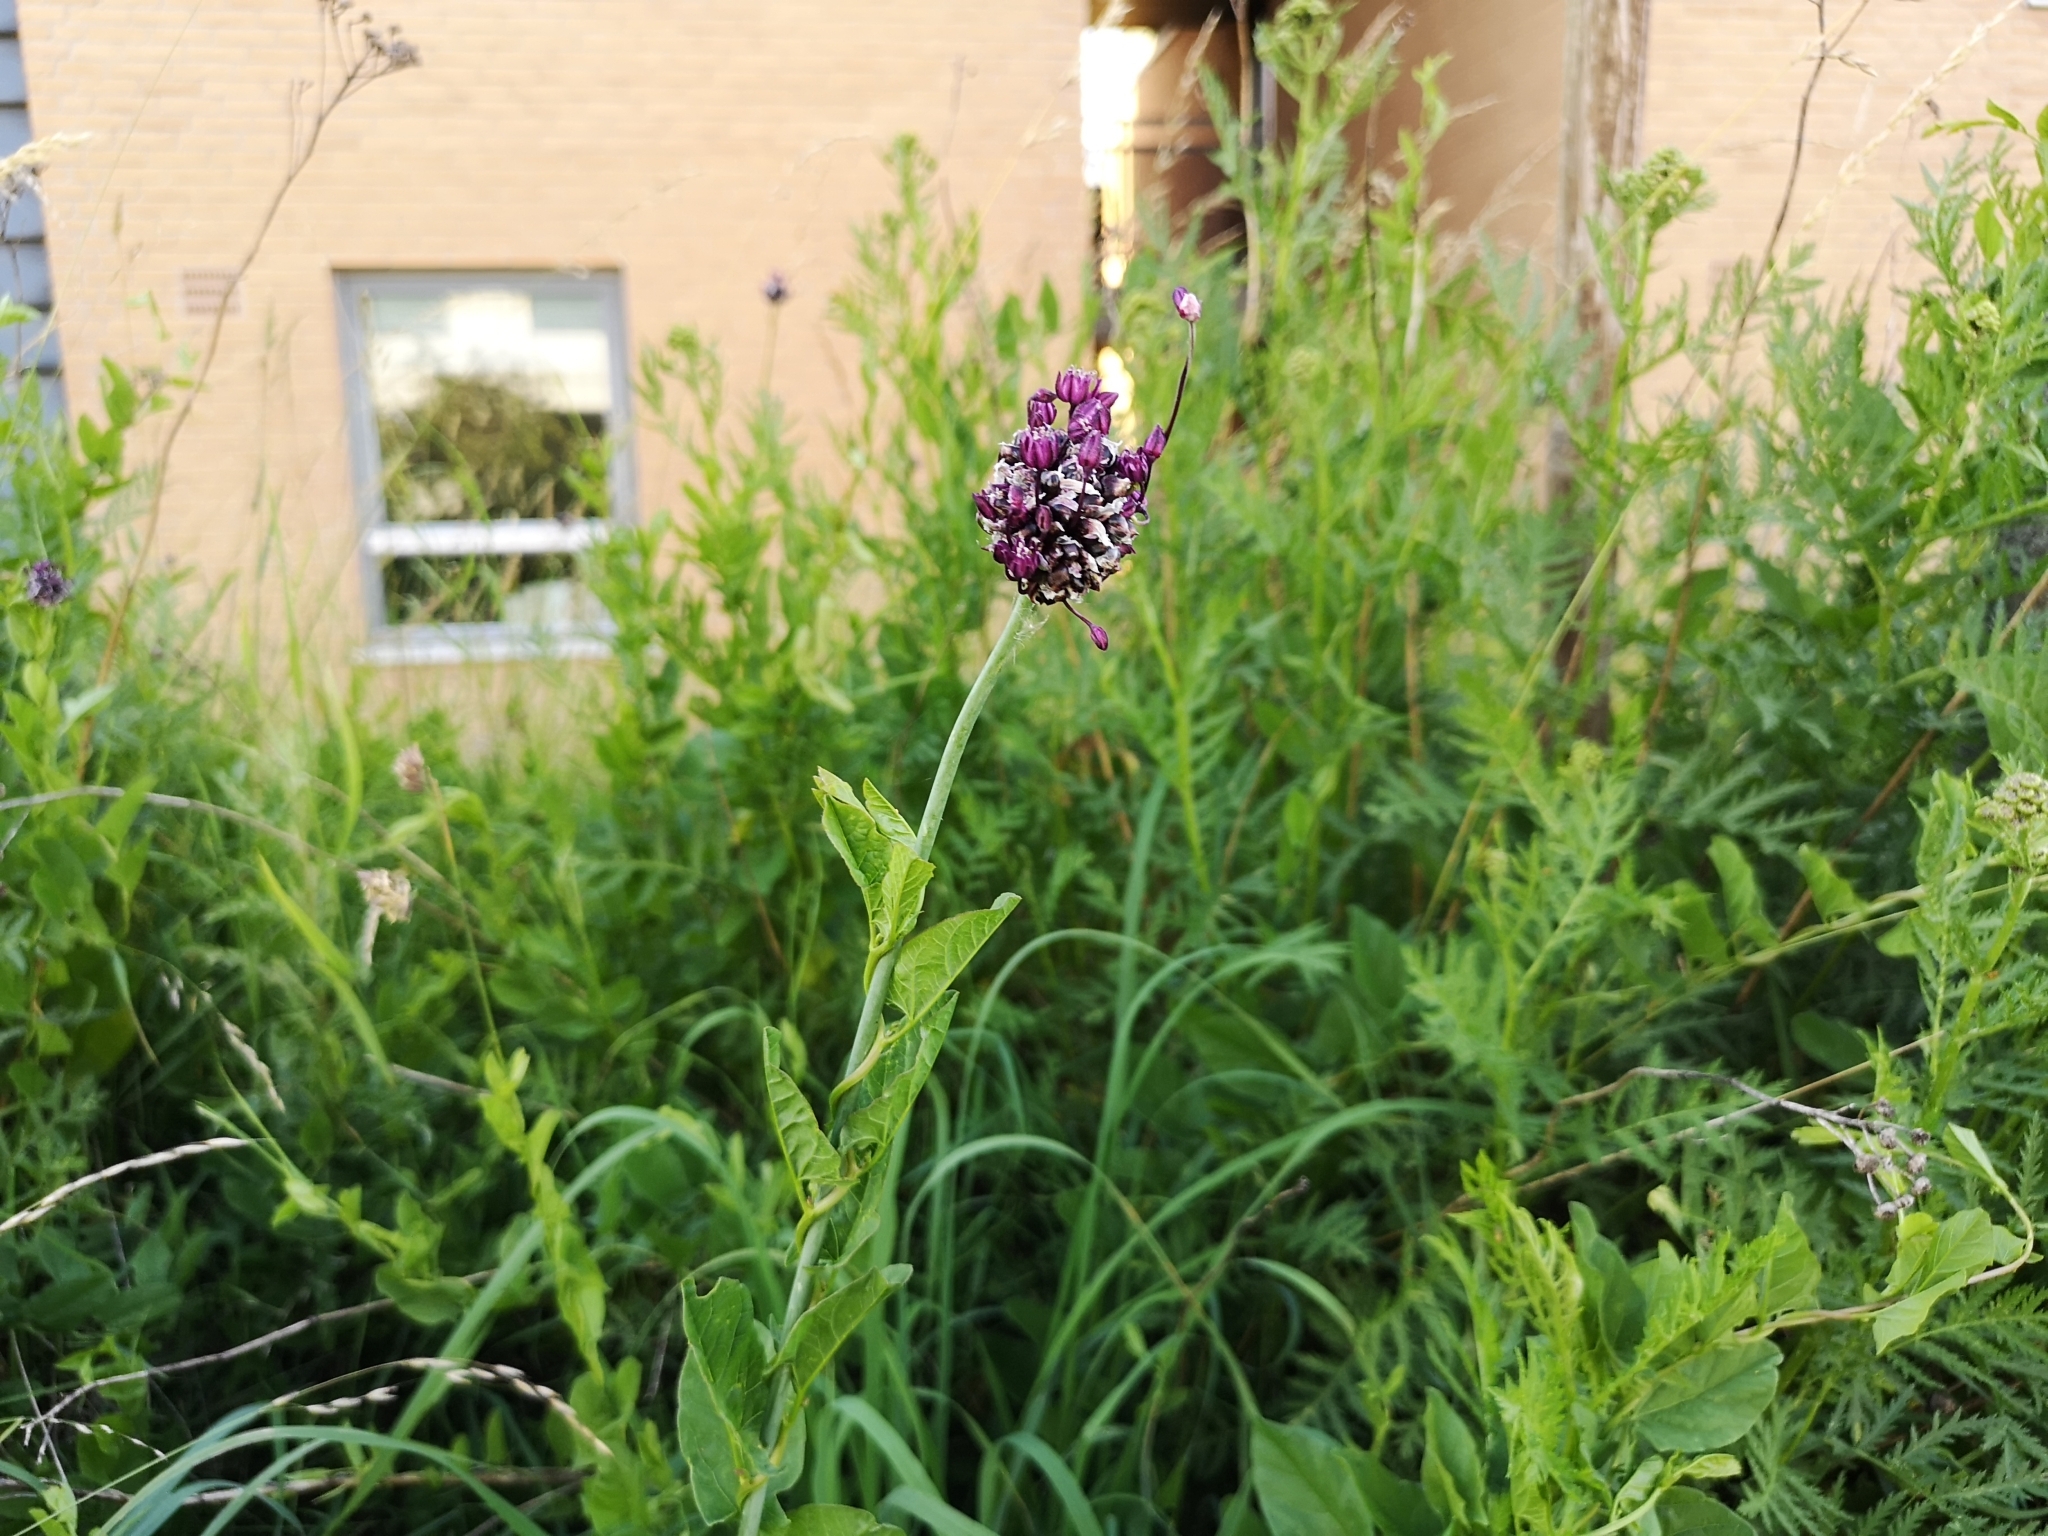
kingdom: Plantae
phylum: Tracheophyta
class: Liliopsida
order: Asparagales
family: Amaryllidaceae
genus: Allium
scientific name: Allium scorodoprasum
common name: Sand leek
